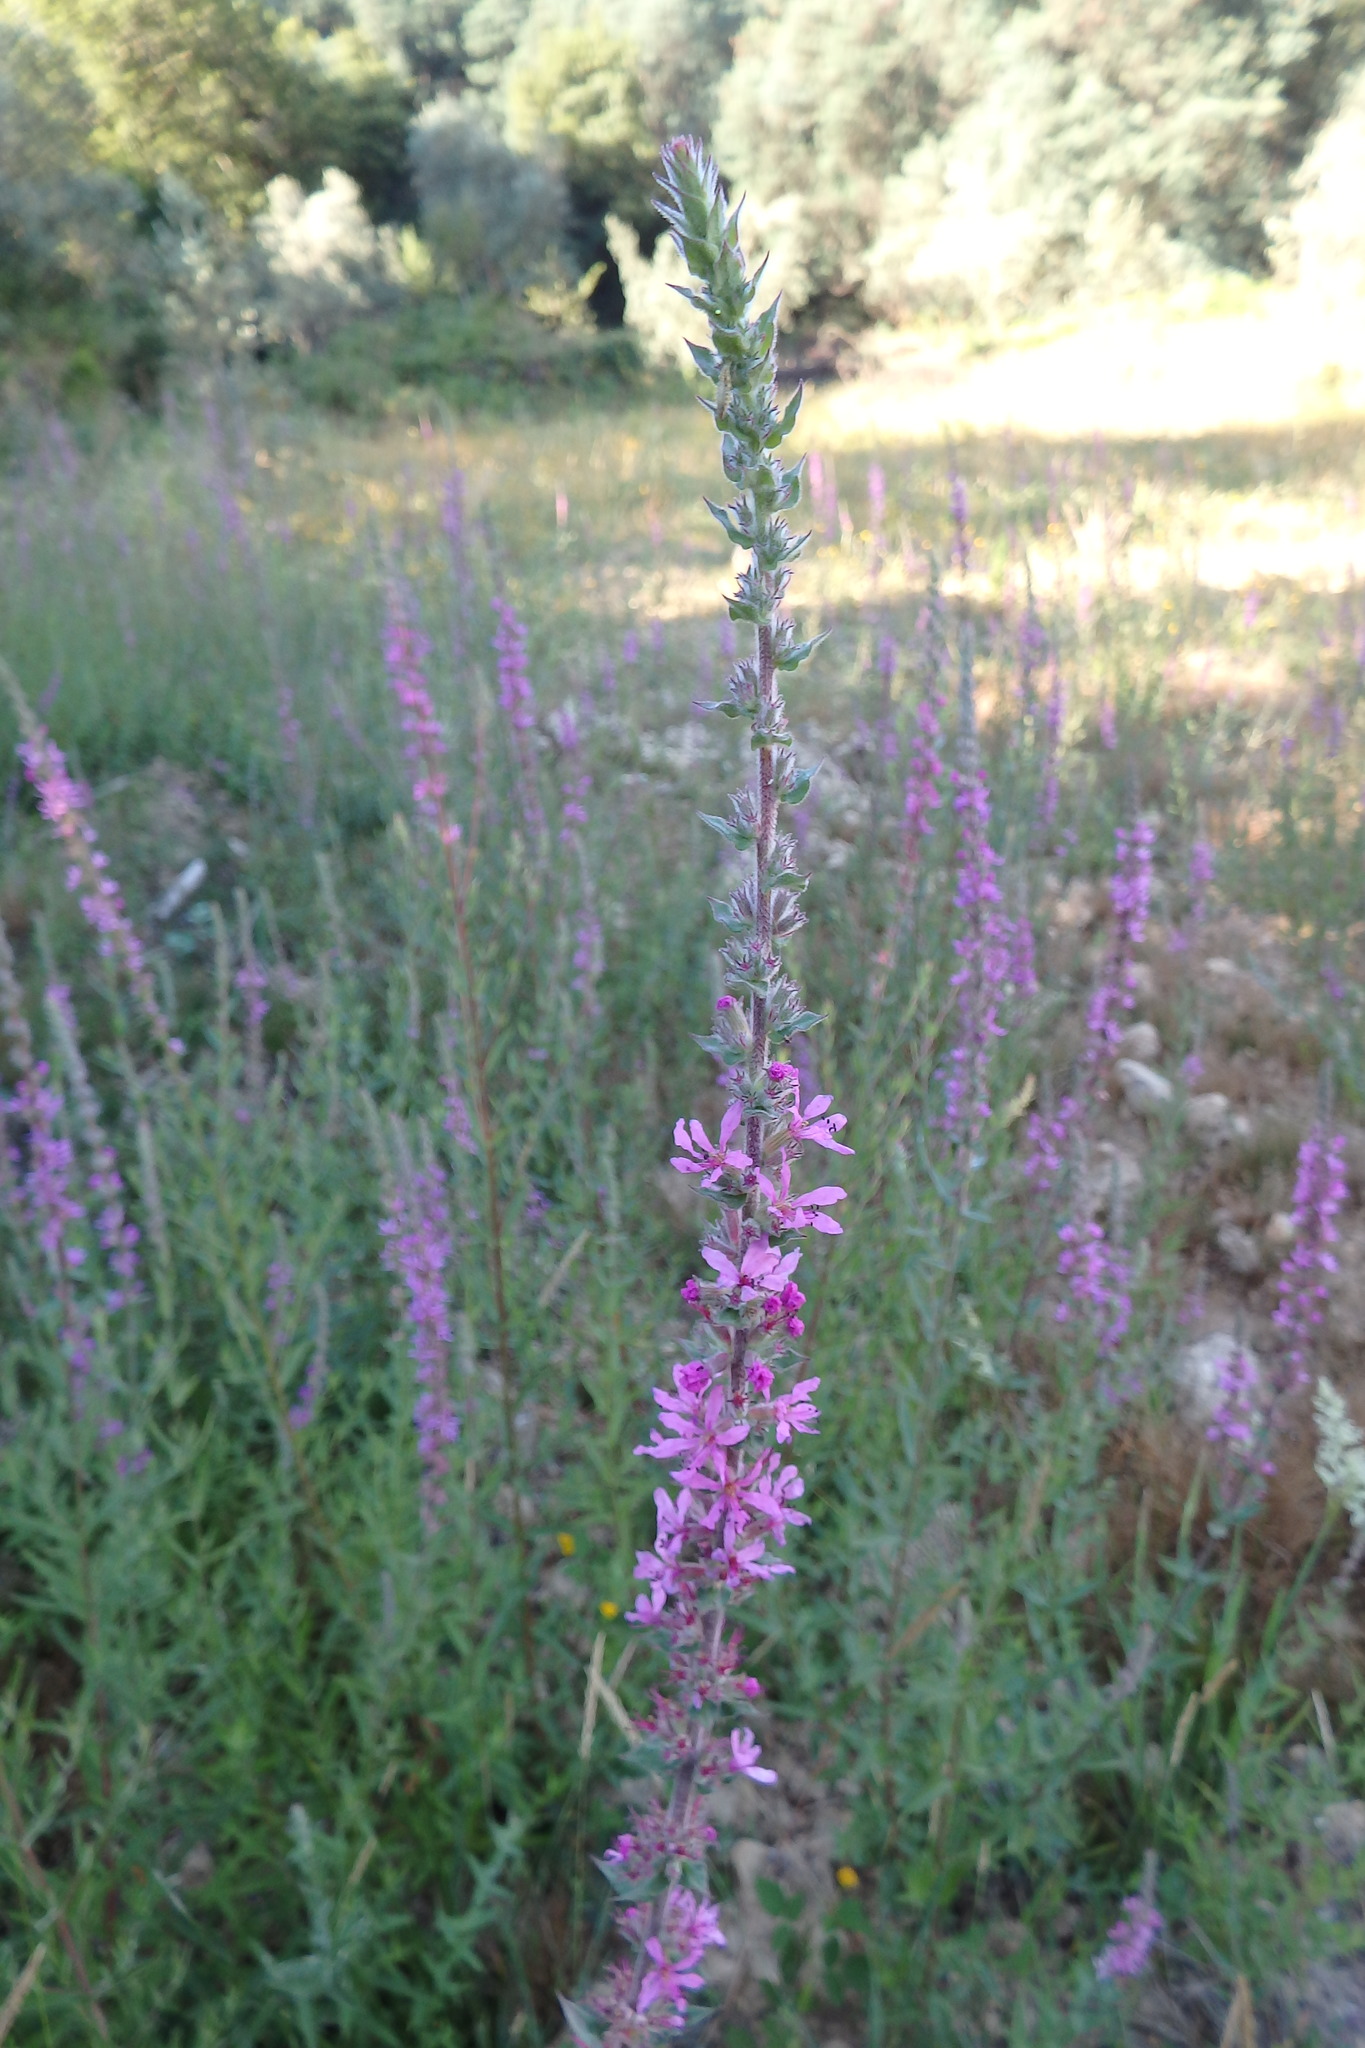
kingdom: Plantae
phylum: Tracheophyta
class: Magnoliopsida
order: Myrtales
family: Lythraceae
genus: Lythrum
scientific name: Lythrum salicaria
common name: Purple loosestrife
